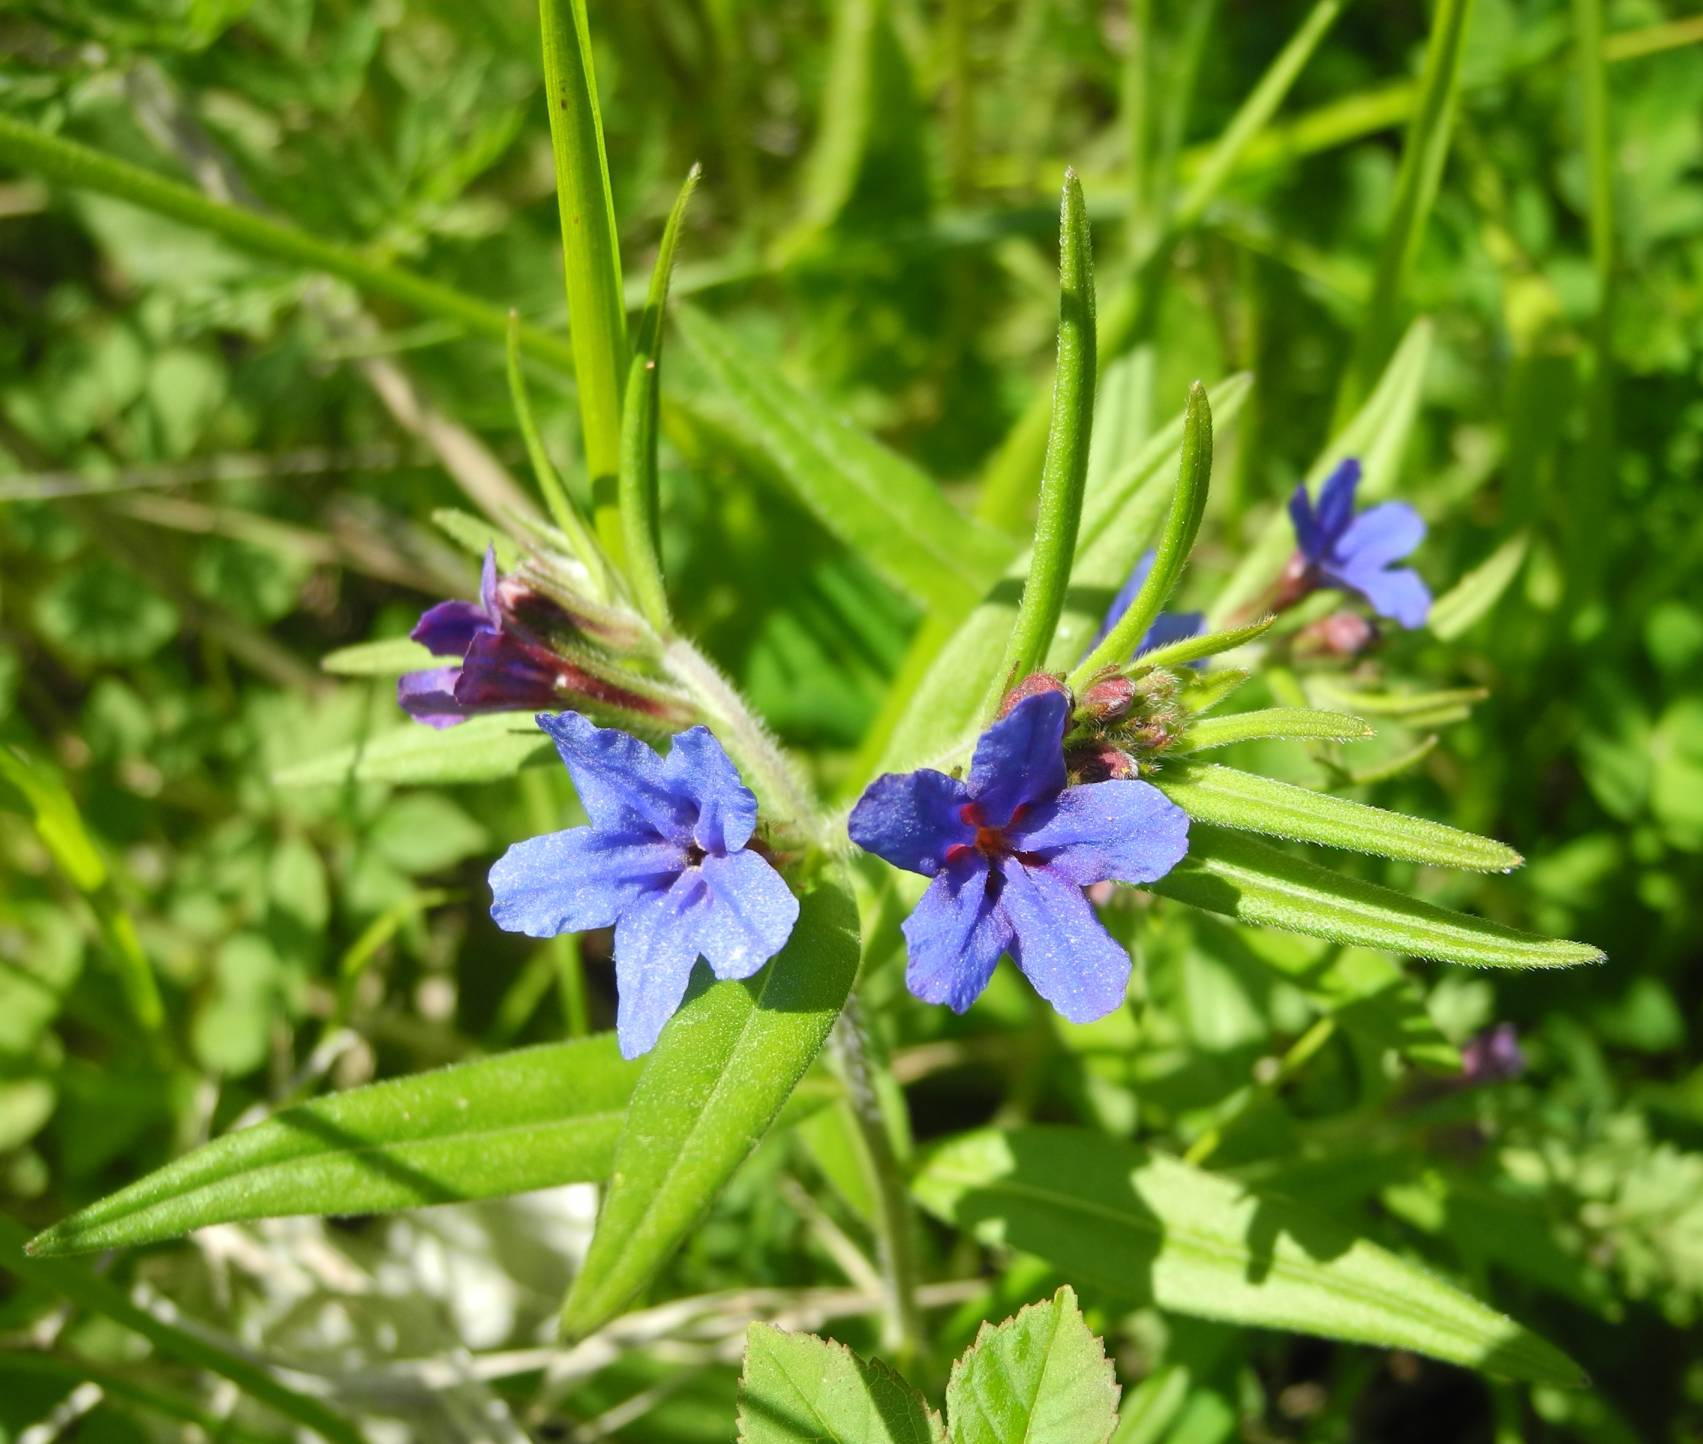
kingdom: Plantae
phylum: Tracheophyta
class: Magnoliopsida
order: Boraginales
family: Boraginaceae
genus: Aegonychon
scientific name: Aegonychon purpurocaeruleum
